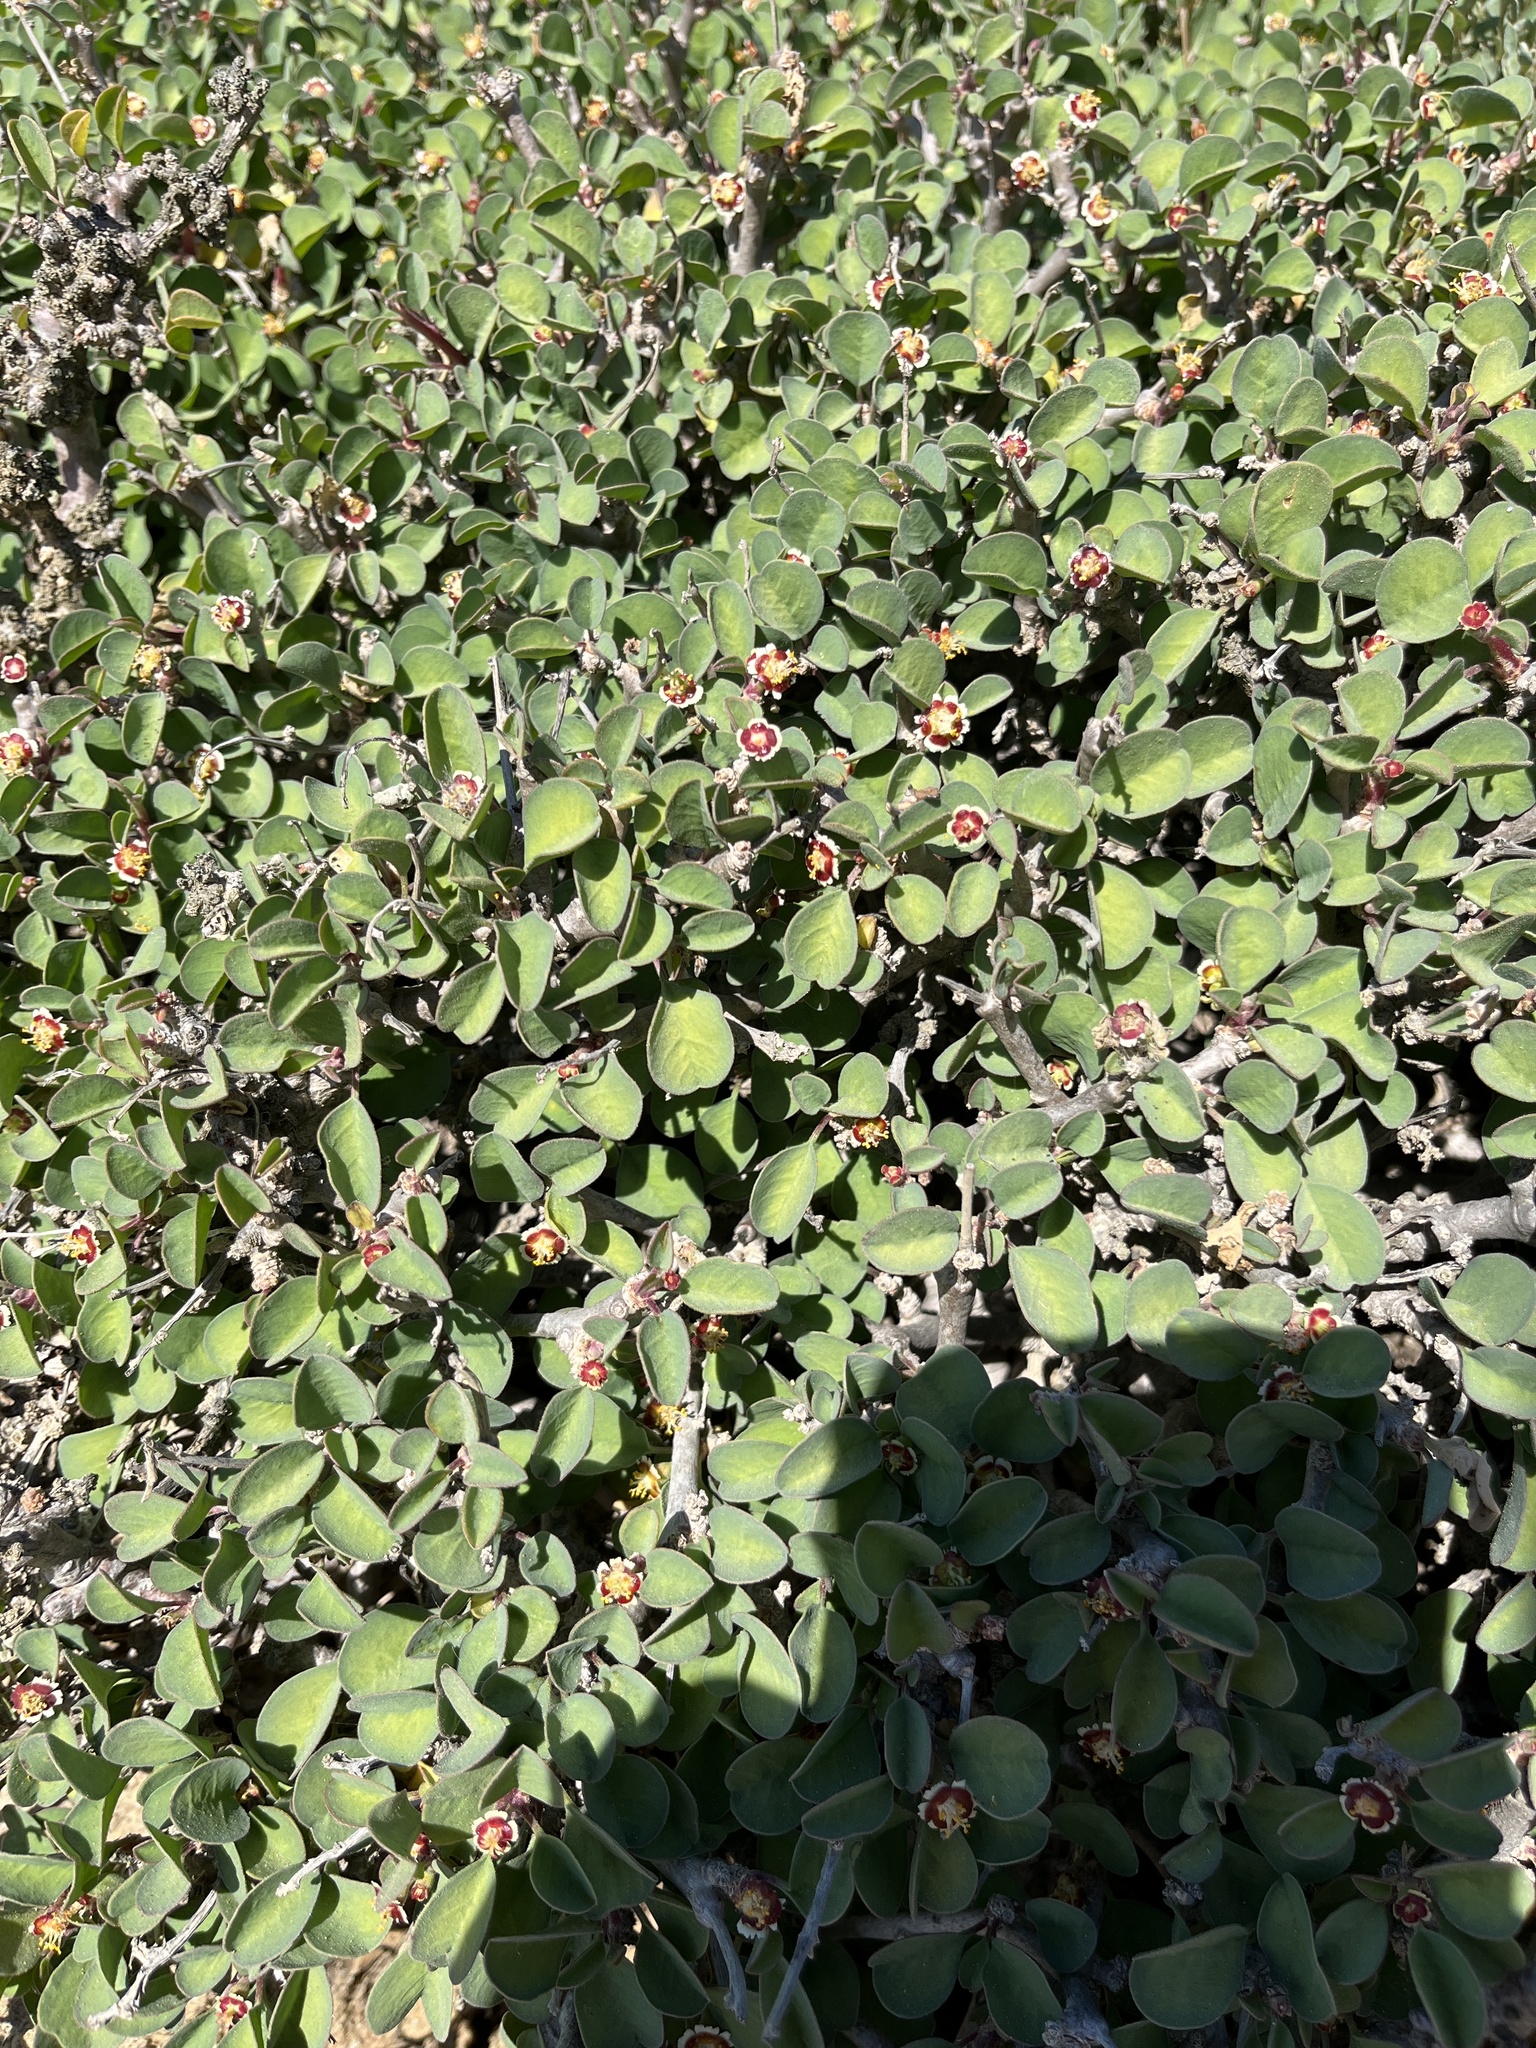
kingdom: Plantae
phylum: Tracheophyta
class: Magnoliopsida
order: Malpighiales
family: Euphorbiaceae
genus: Euphorbia
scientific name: Euphorbia misera
